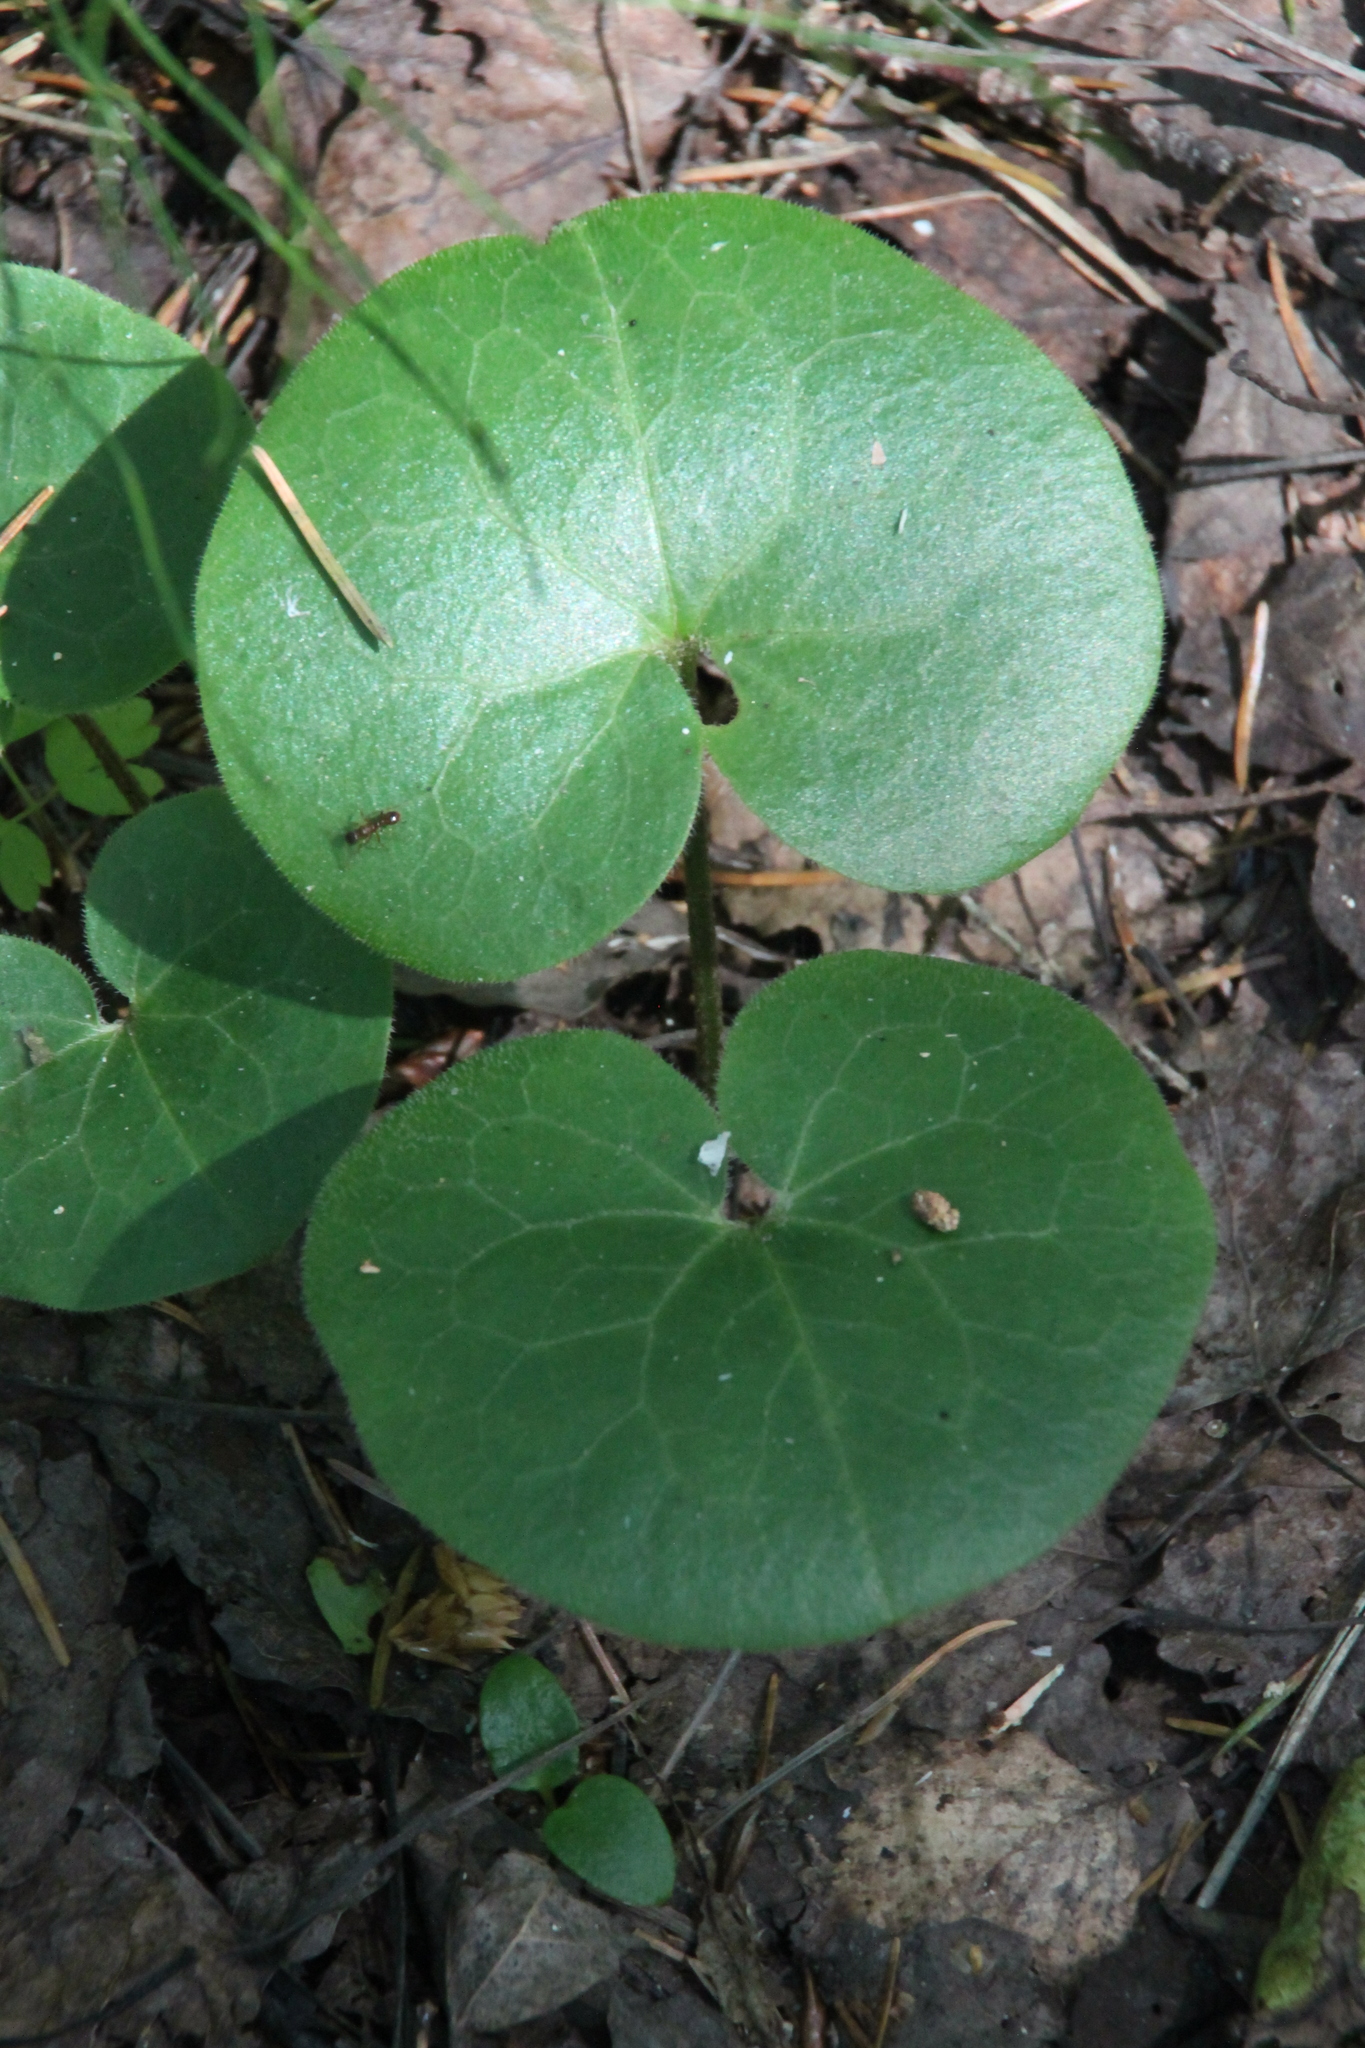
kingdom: Plantae
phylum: Tracheophyta
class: Magnoliopsida
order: Piperales
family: Aristolochiaceae
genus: Asarum
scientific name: Asarum europaeum
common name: Asarabacca
